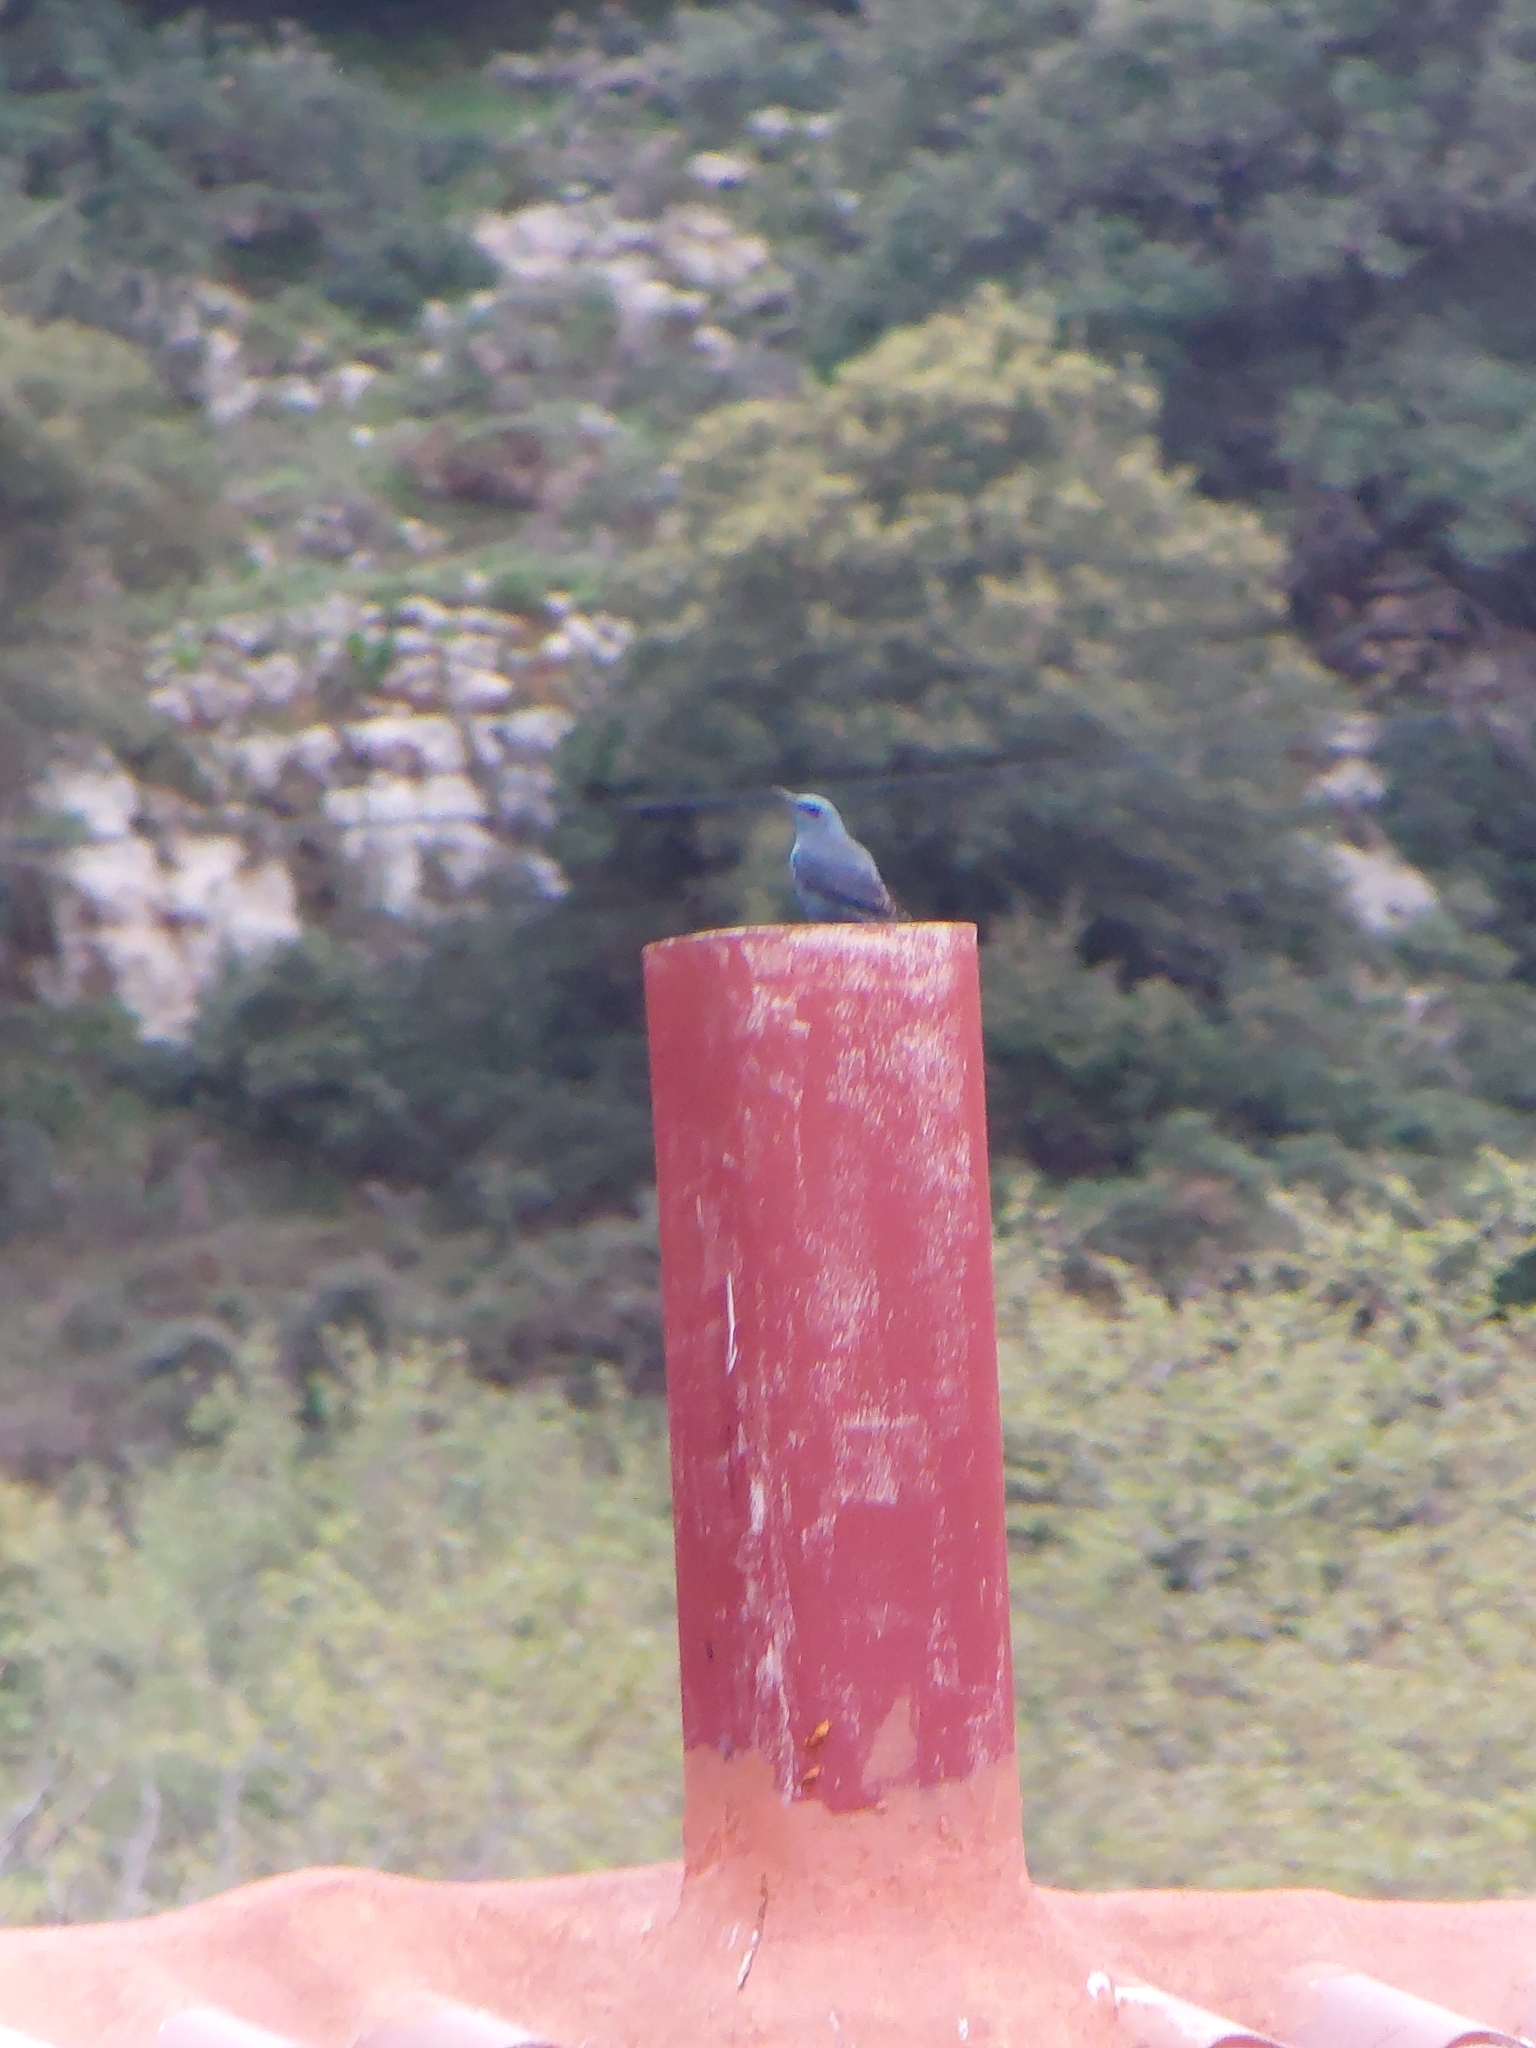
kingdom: Animalia
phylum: Chordata
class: Aves
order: Passeriformes
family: Muscicapidae
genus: Monticola
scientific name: Monticola solitarius
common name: Blue rock thrush
